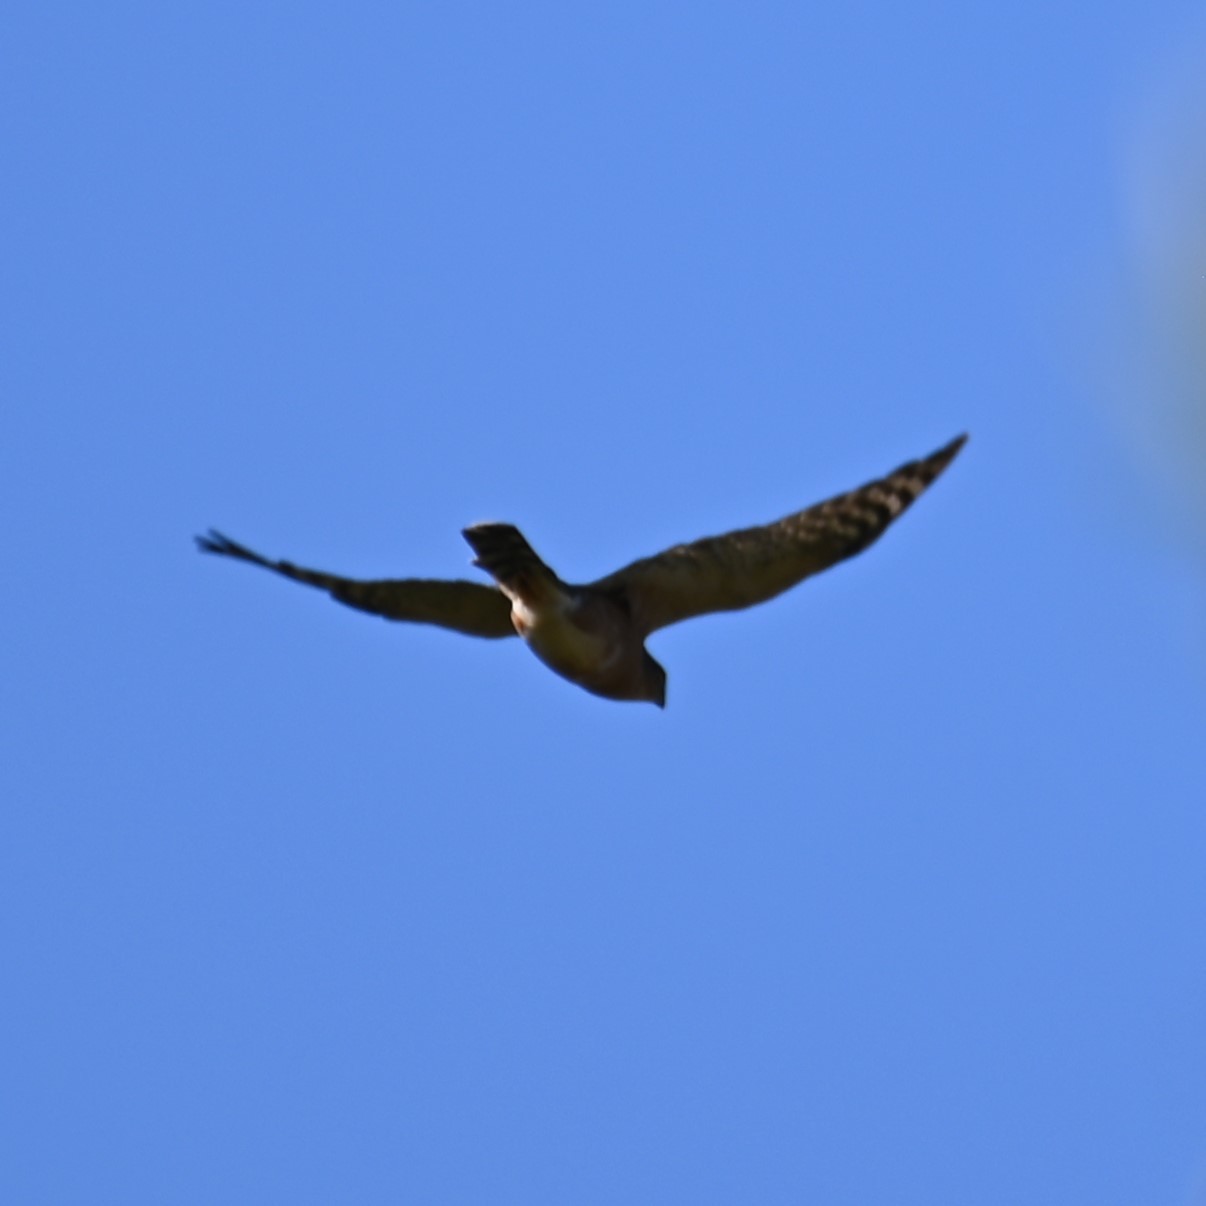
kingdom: Animalia
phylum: Chordata
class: Aves
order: Accipitriformes
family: Accipitridae
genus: Accipiter
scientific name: Accipiter rufiventris
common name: Rufous-breasted sparrowhawk
